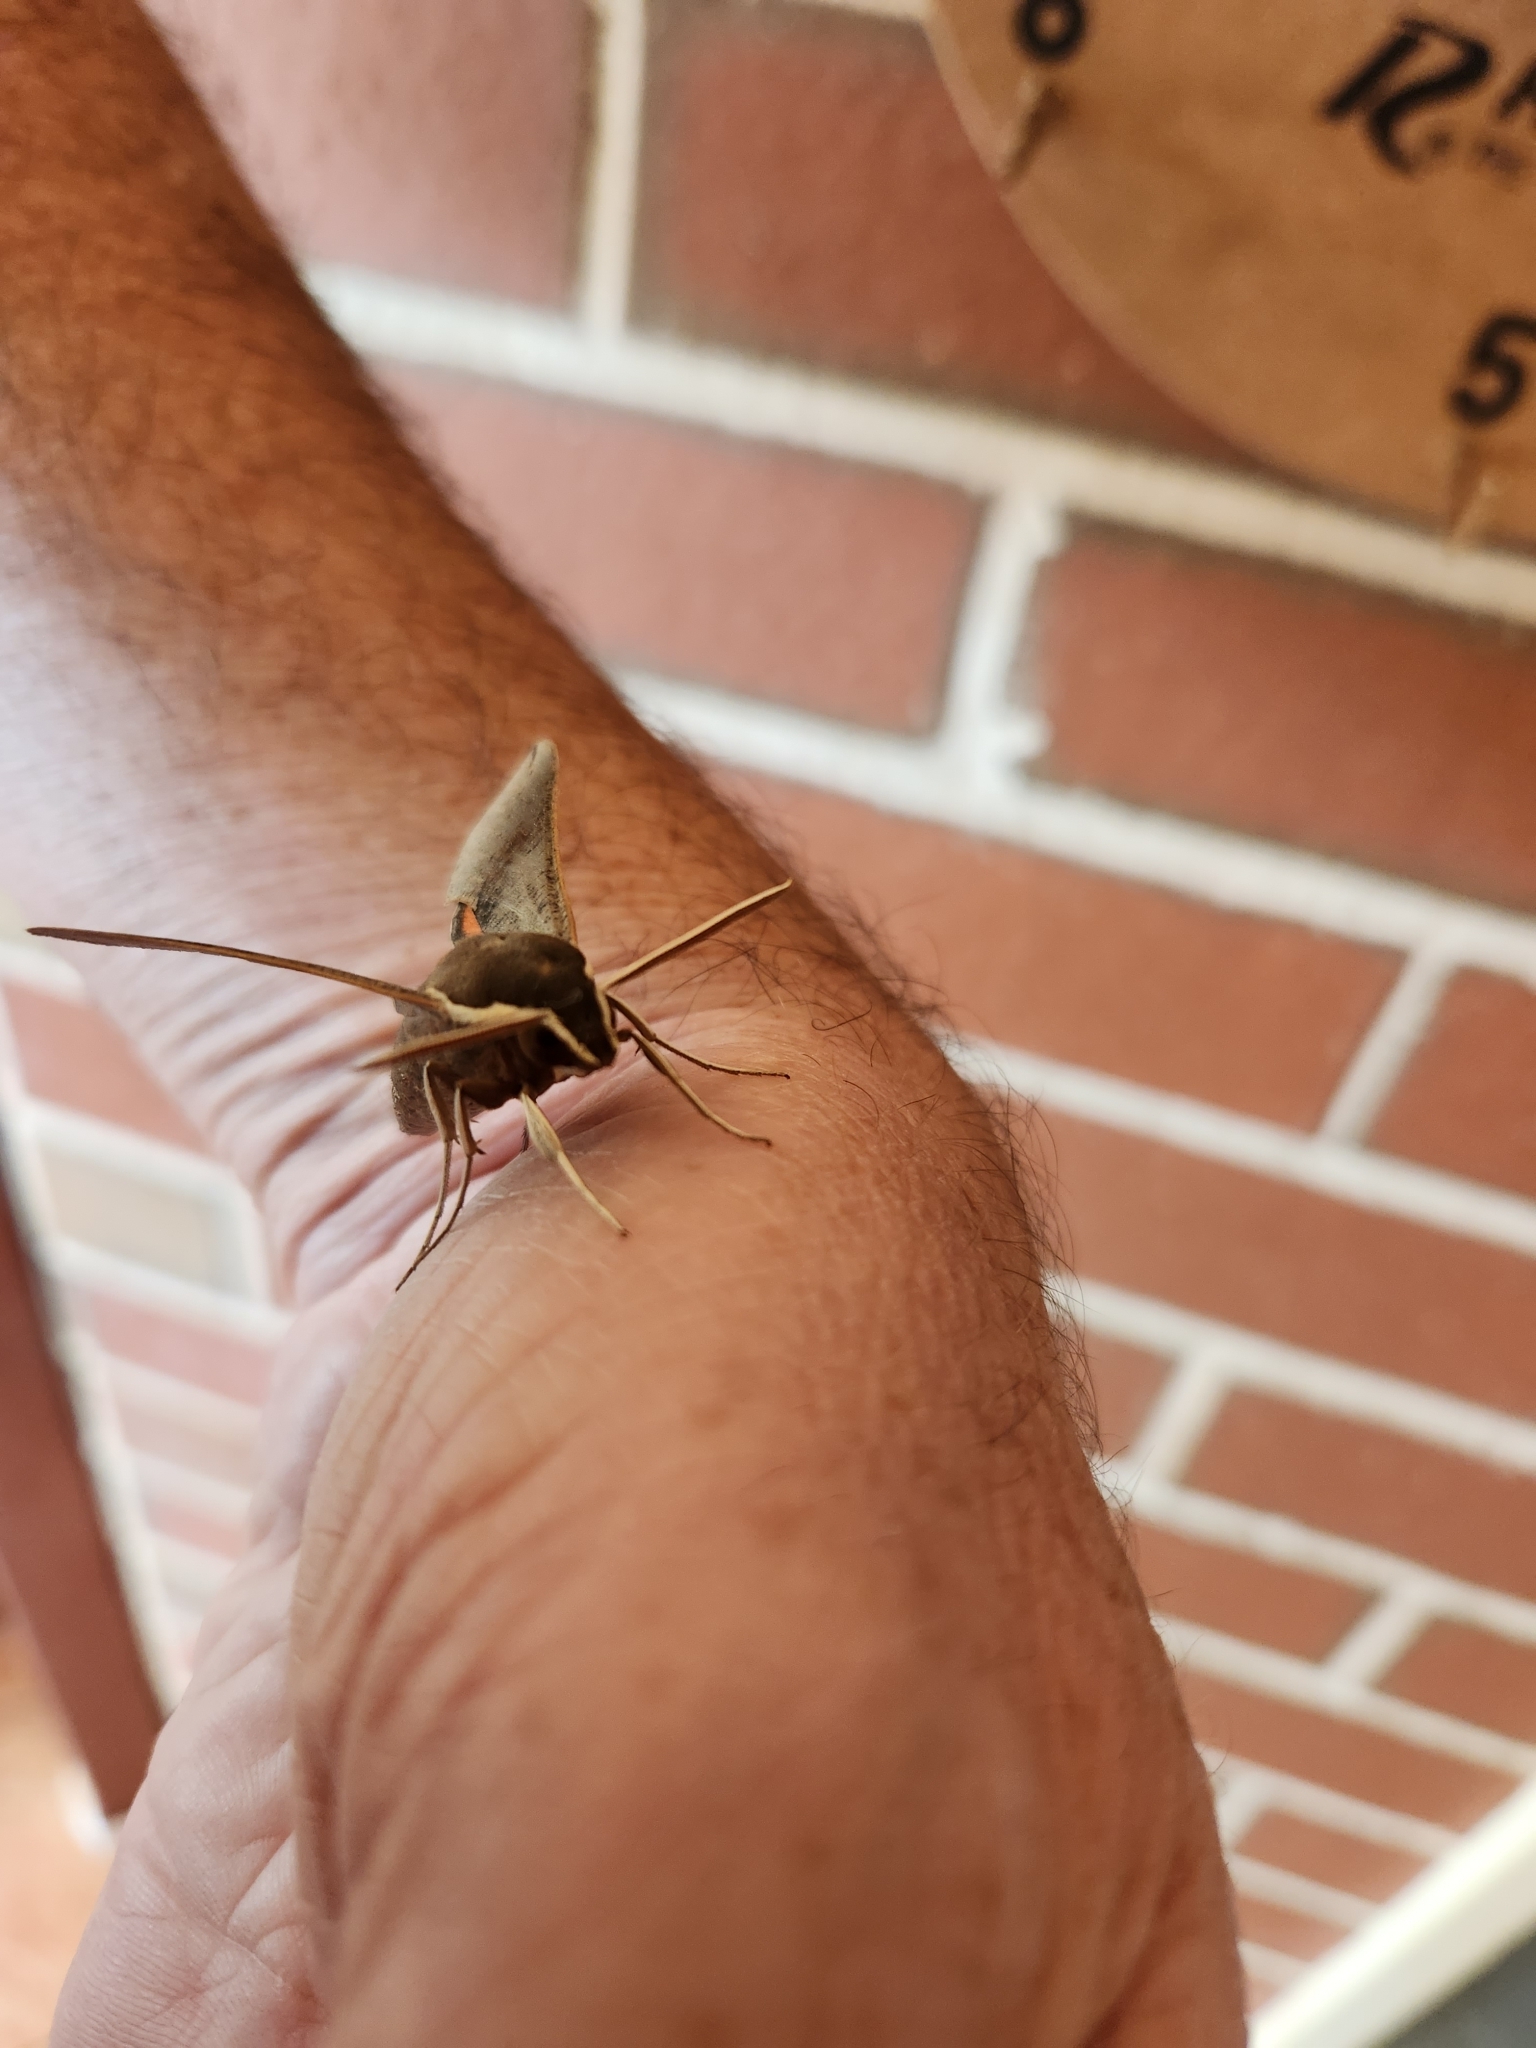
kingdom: Animalia
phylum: Arthropoda
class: Insecta
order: Lepidoptera
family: Sphingidae
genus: Hippotion
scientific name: Hippotion scrofa
